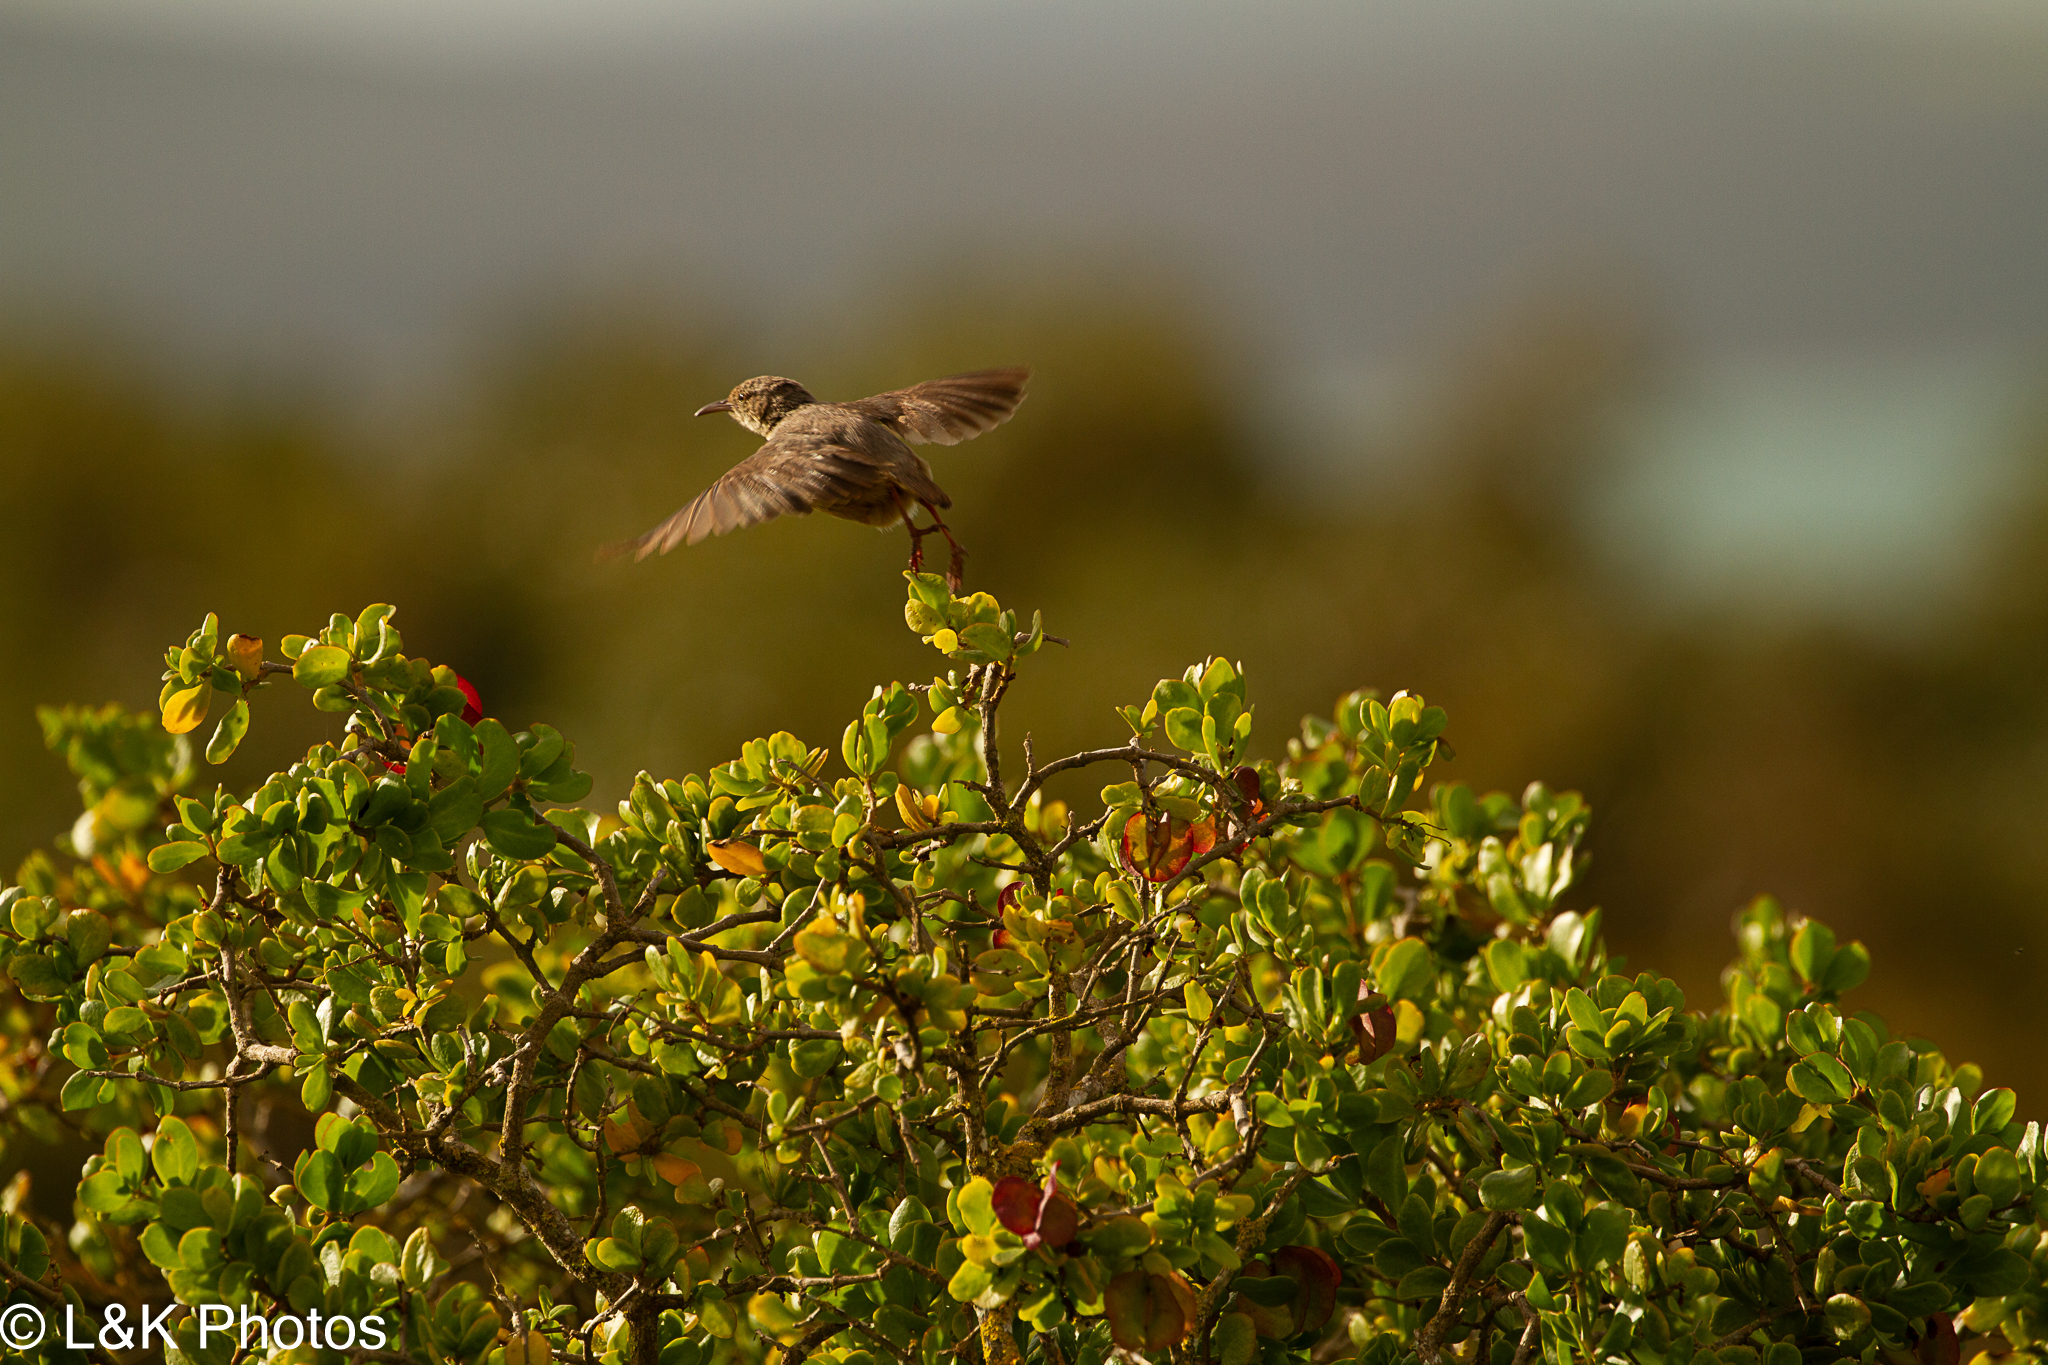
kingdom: Animalia
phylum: Chordata
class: Aves
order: Passeriformes
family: Macrosphenidae
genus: Sylvietta
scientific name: Sylvietta rufescens
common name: Long-billed crombec
